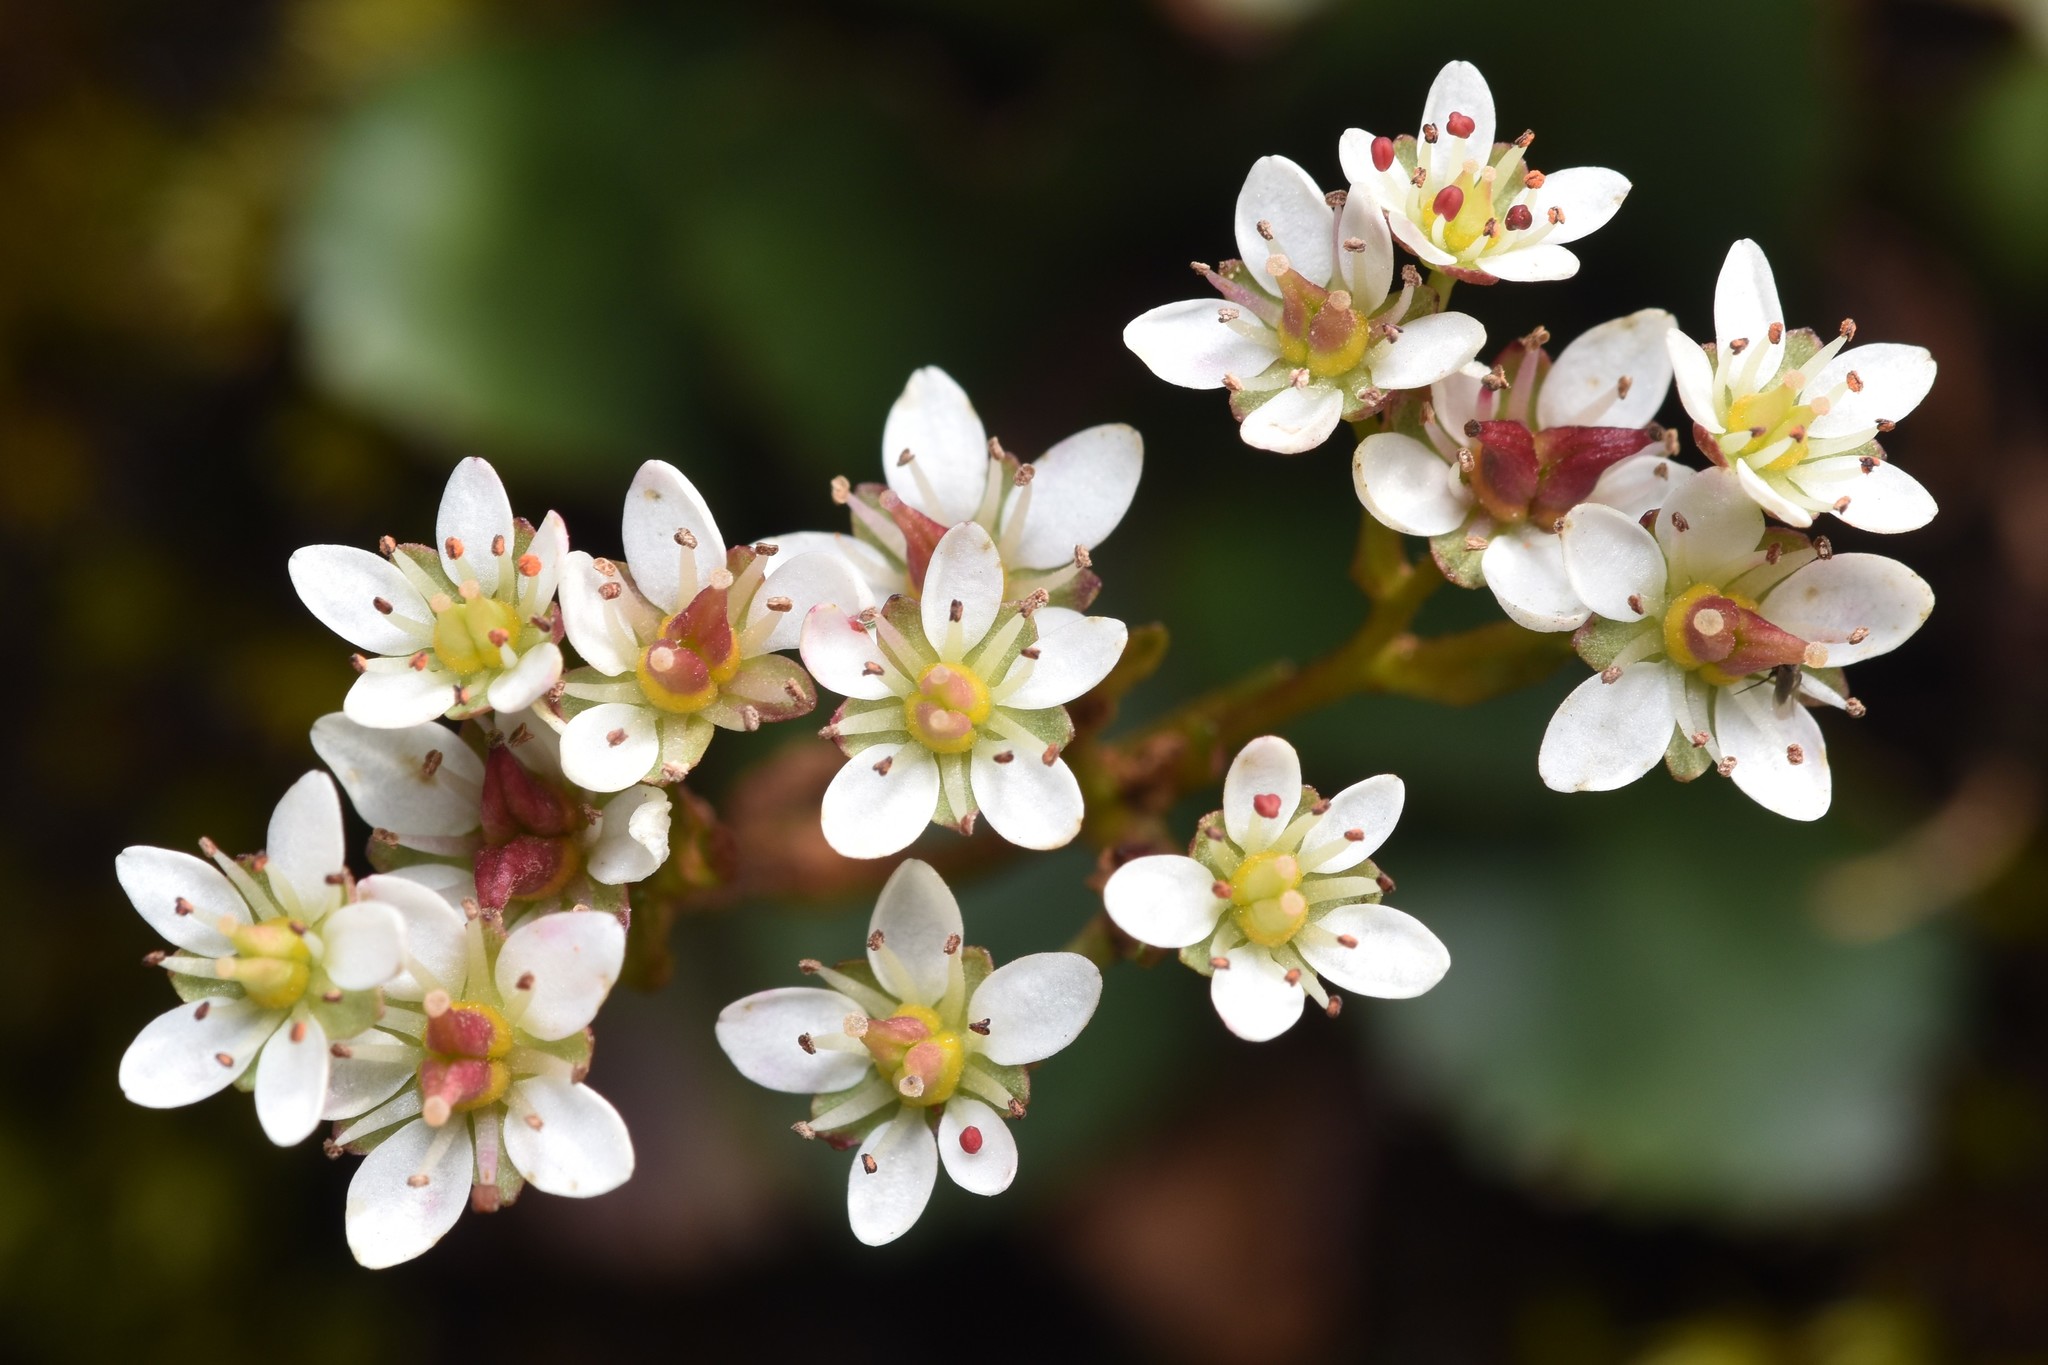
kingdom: Plantae
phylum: Tracheophyta
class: Magnoliopsida
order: Saxifragales
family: Saxifragaceae
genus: Micranthes
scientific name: Micranthes rufidula
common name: Rustyhair saxifrage
